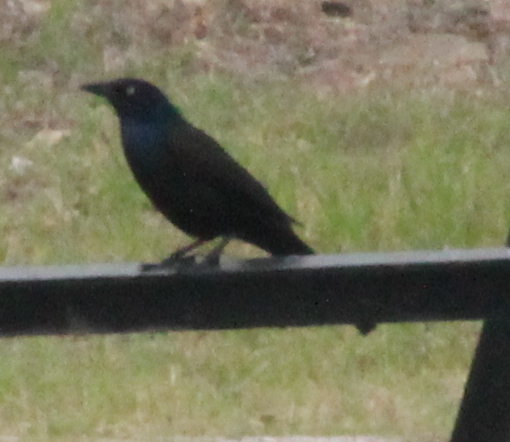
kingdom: Animalia
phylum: Chordata
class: Aves
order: Passeriformes
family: Icteridae
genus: Quiscalus
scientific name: Quiscalus quiscula
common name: Common grackle
